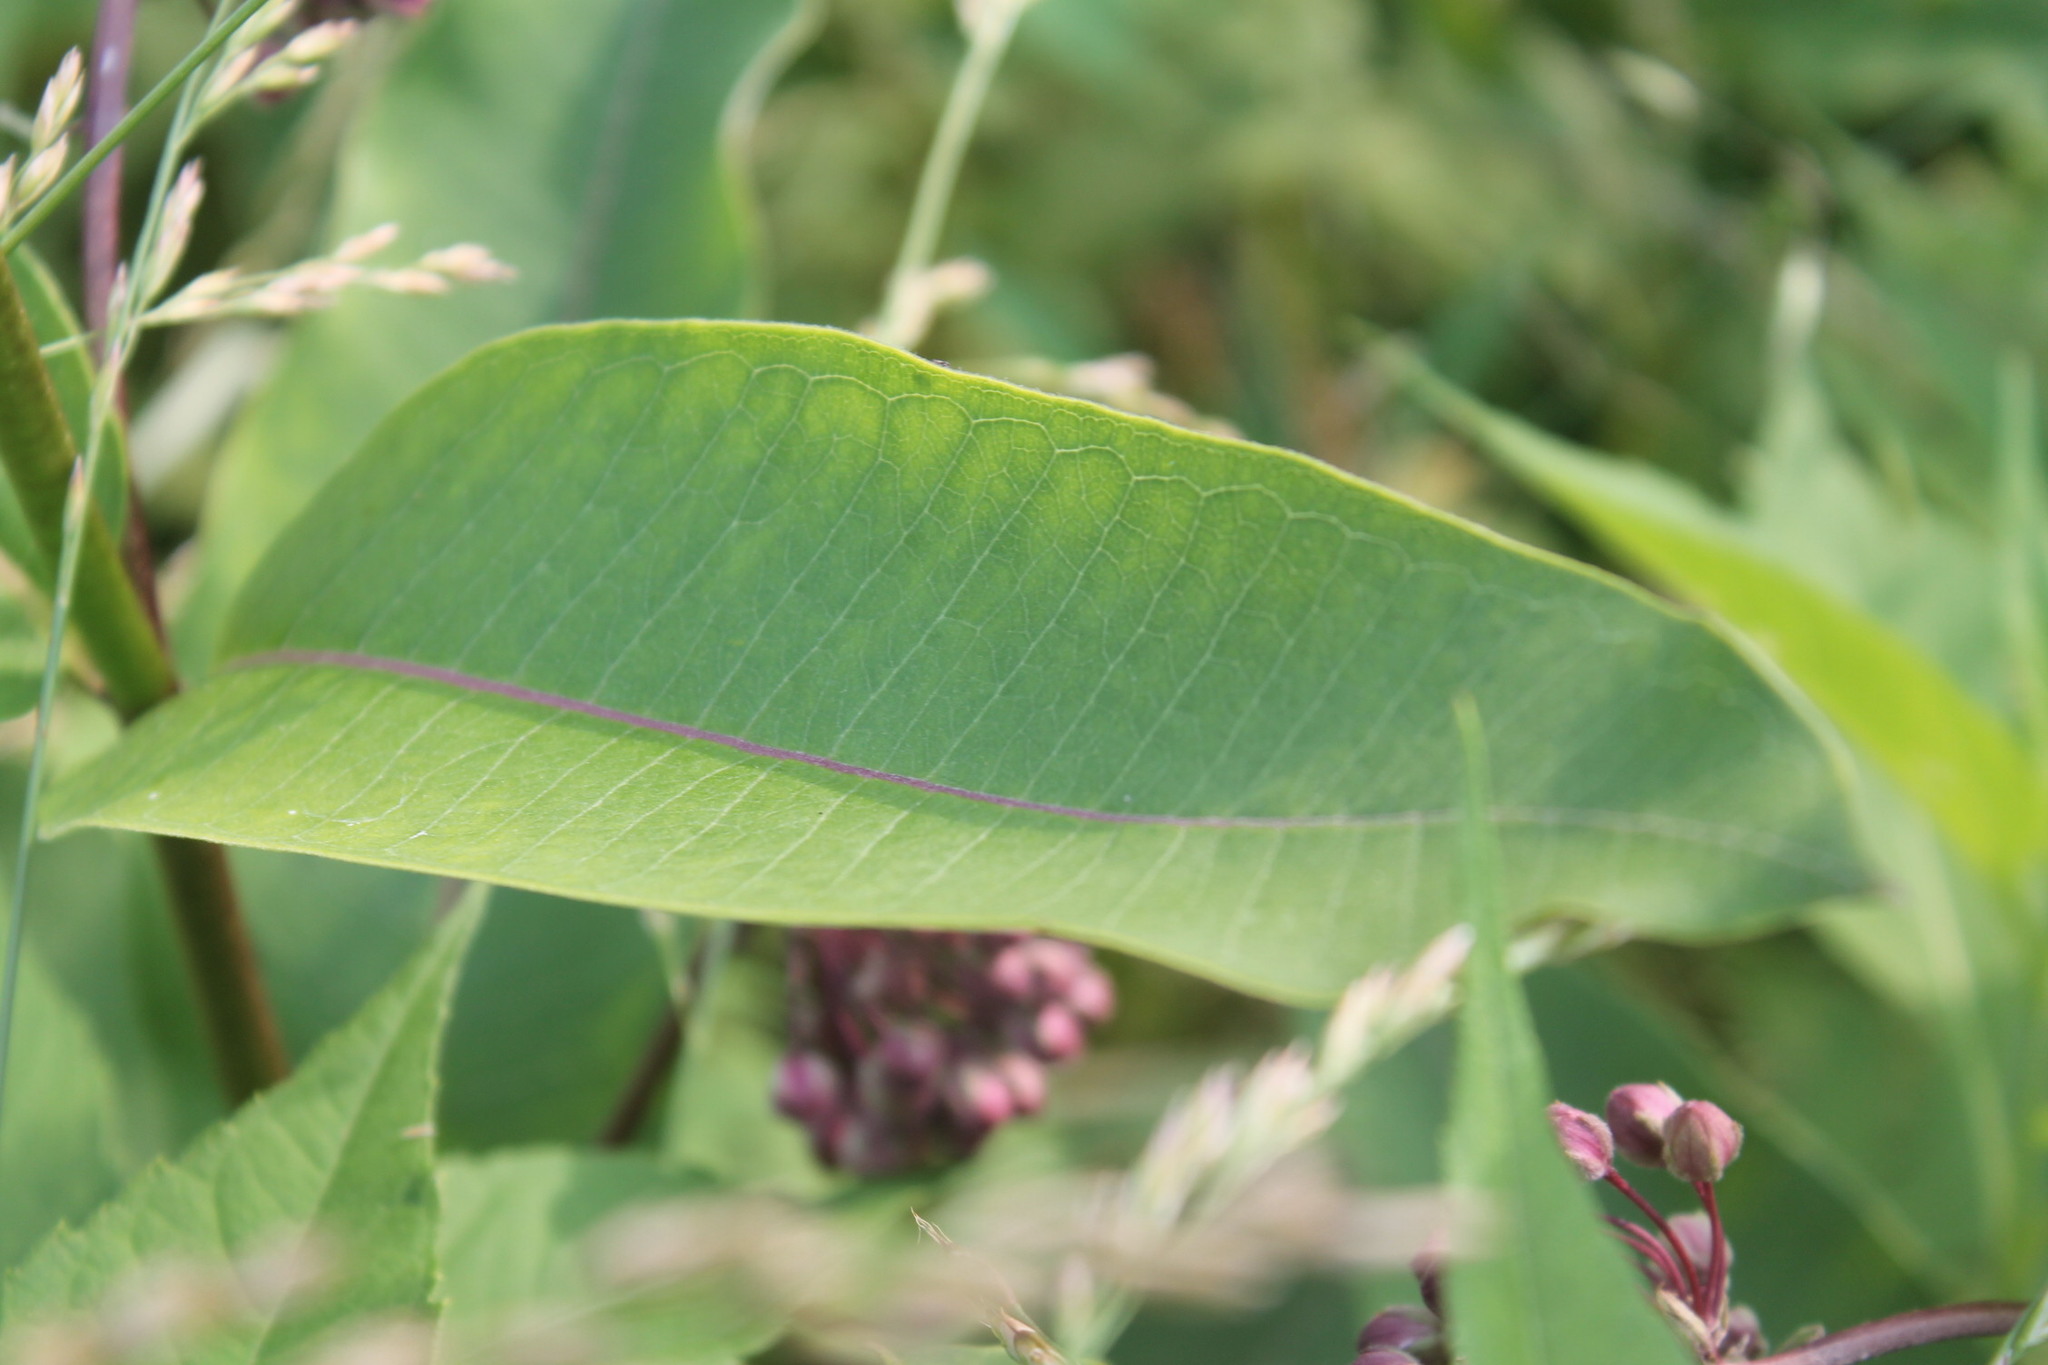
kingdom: Plantae
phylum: Tracheophyta
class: Magnoliopsida
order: Gentianales
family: Apocynaceae
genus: Asclepias
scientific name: Asclepias syriaca
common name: Common milkweed
